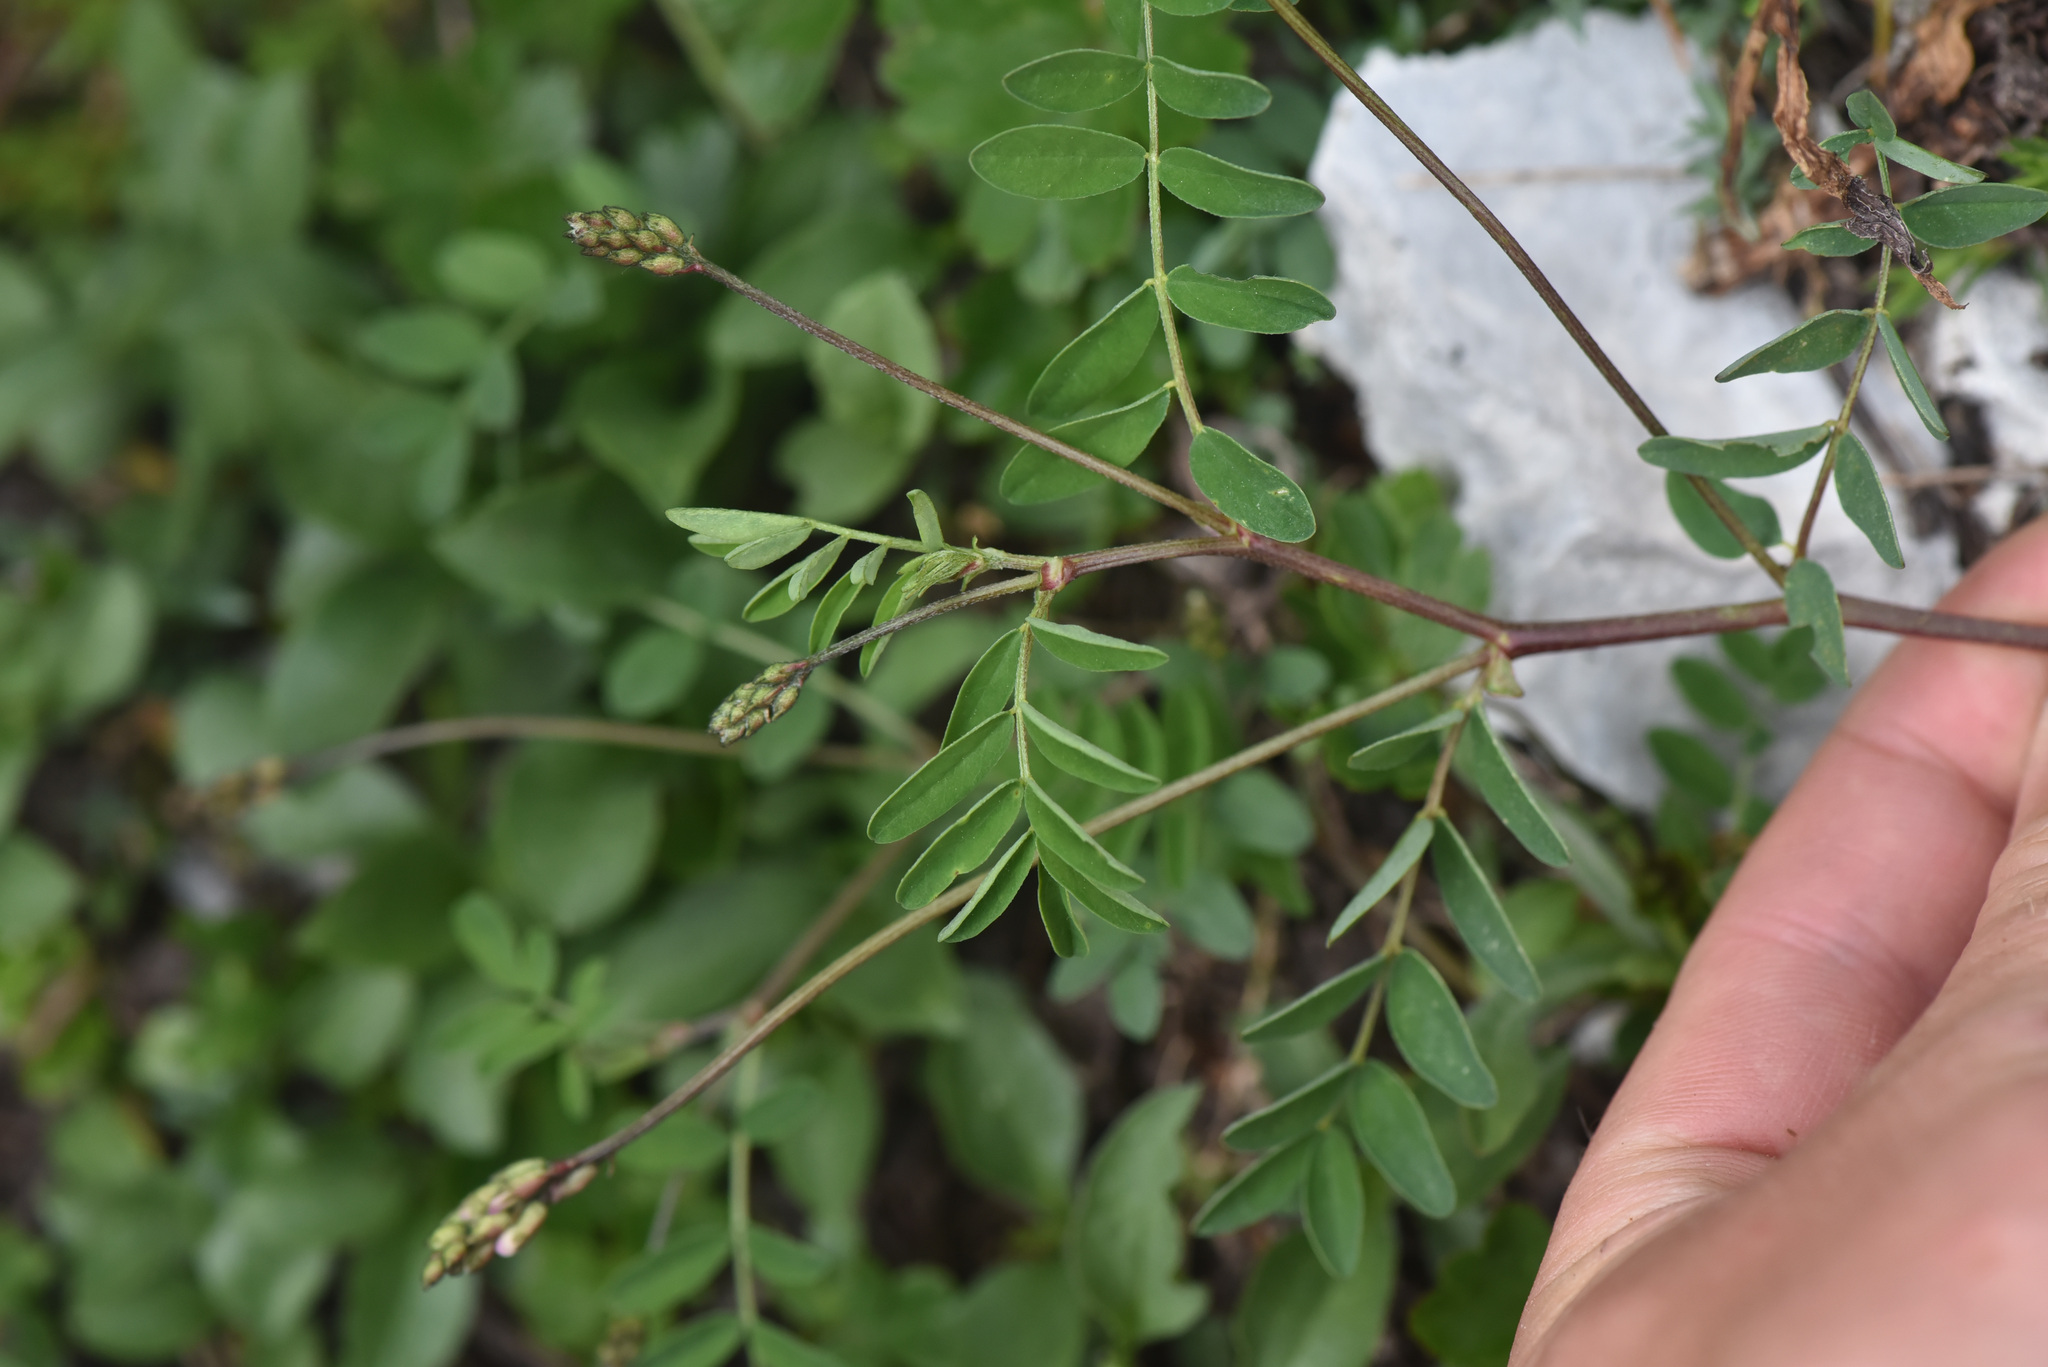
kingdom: Plantae
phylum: Tracheophyta
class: Magnoliopsida
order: Fabales
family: Fabaceae
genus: Astragalus
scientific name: Astragalus robbinsii
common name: Robbins' milk-vetch
